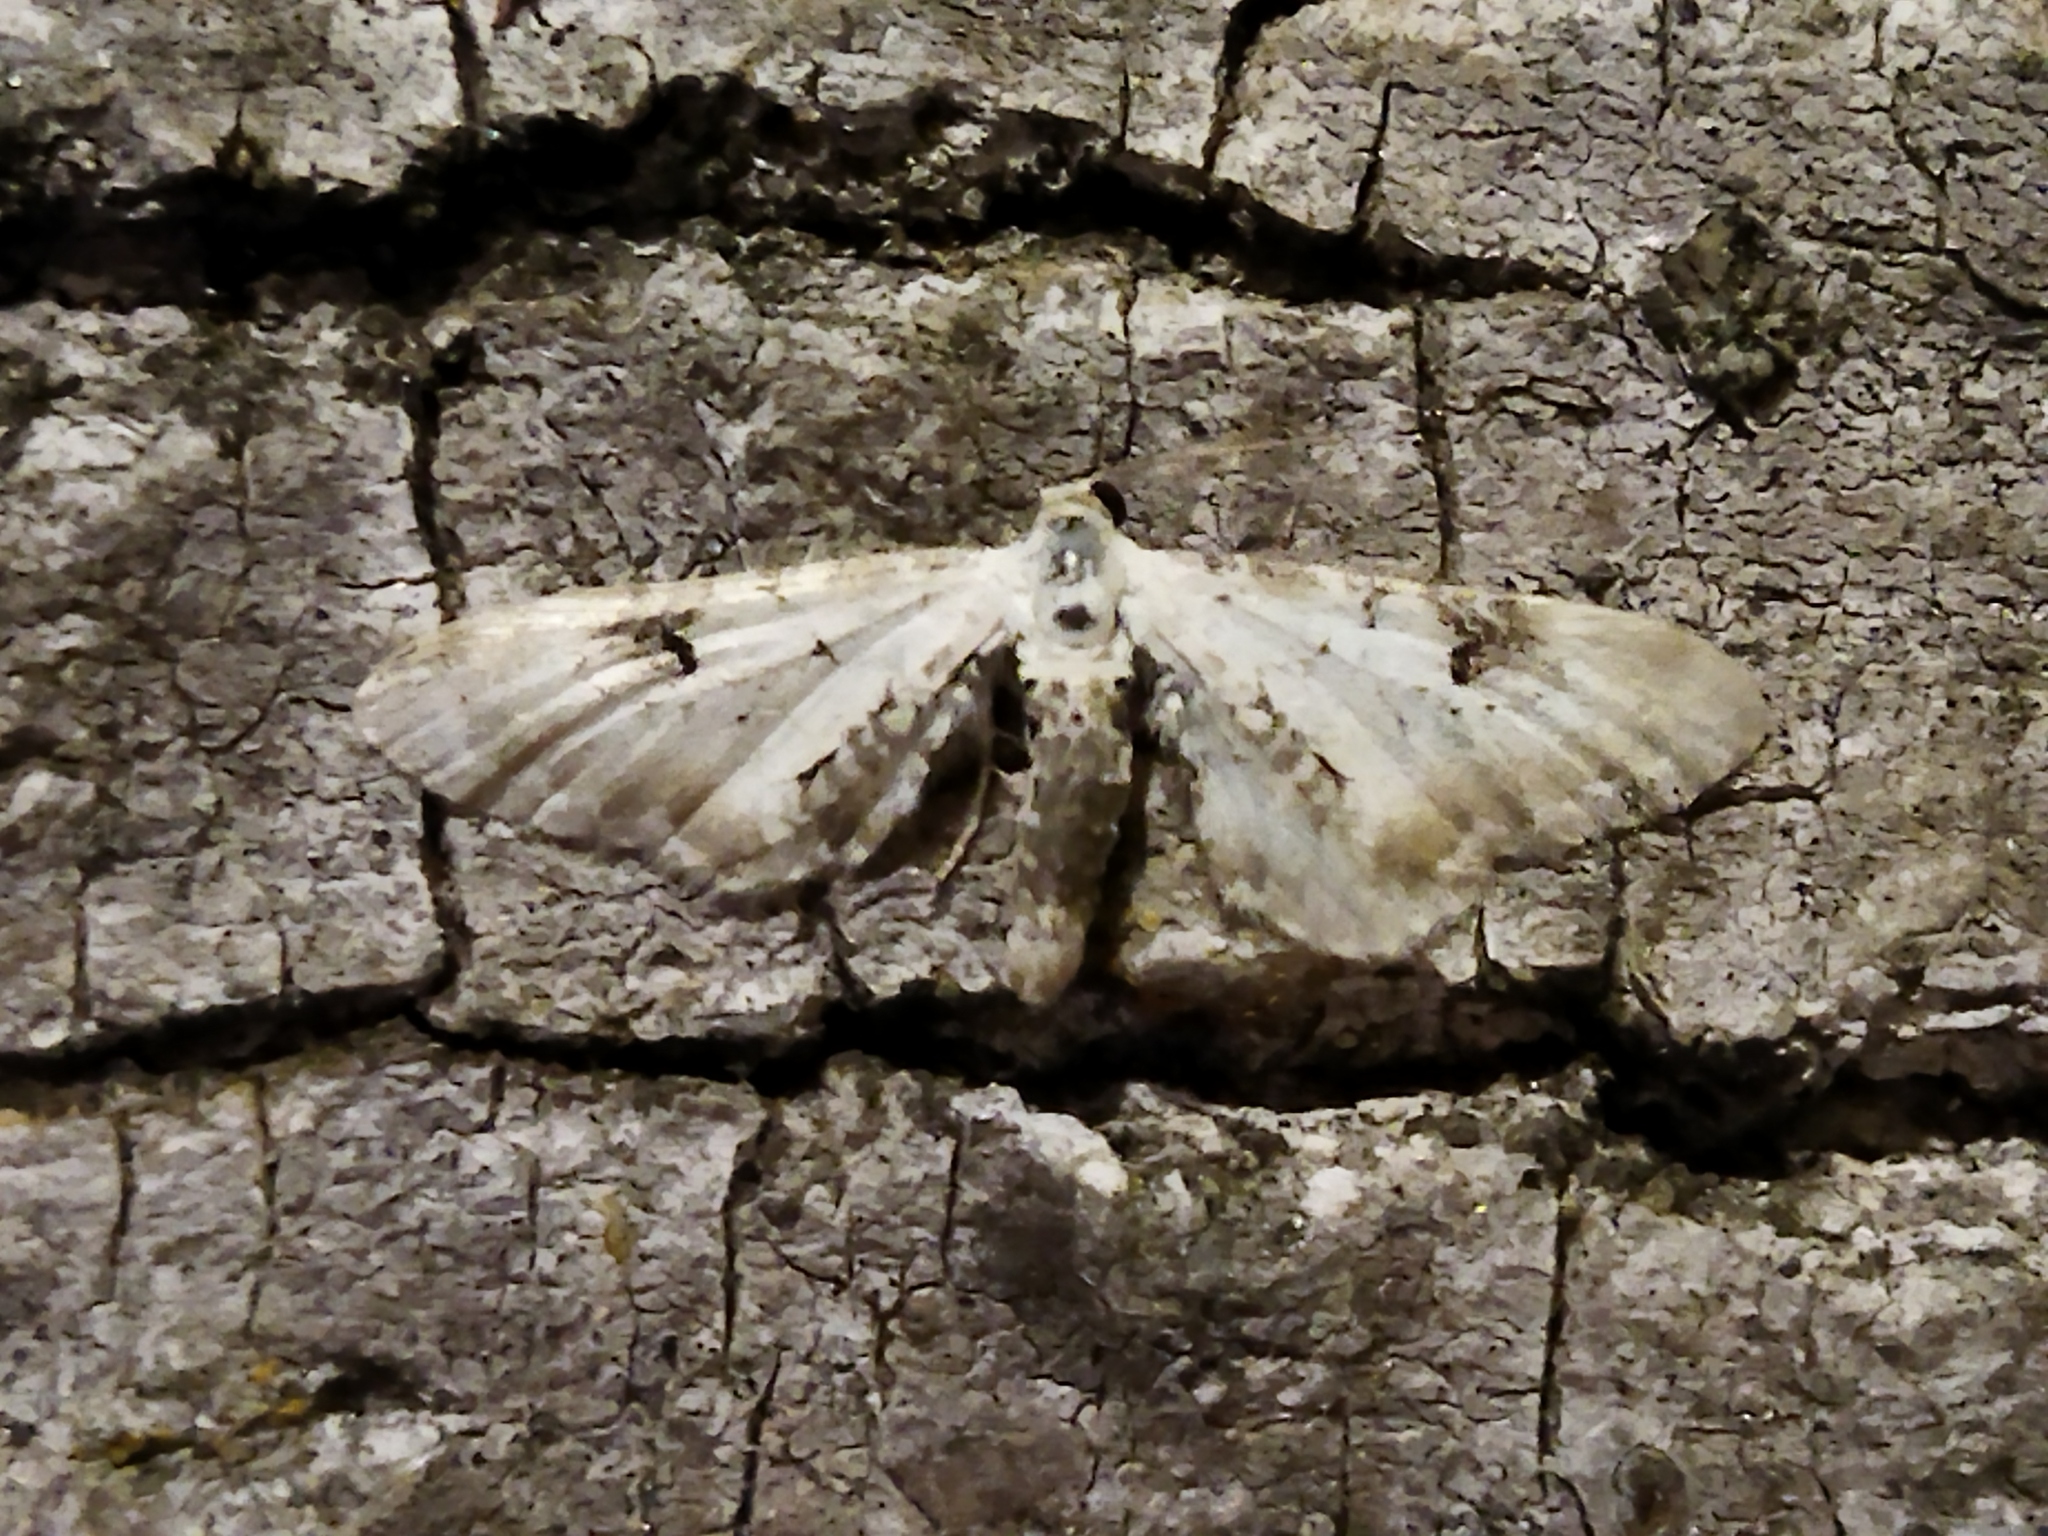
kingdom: Animalia
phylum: Arthropoda
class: Insecta
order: Lepidoptera
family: Geometridae
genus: Eupithecia
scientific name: Eupithecia centaureata
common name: Lime-speck pug
